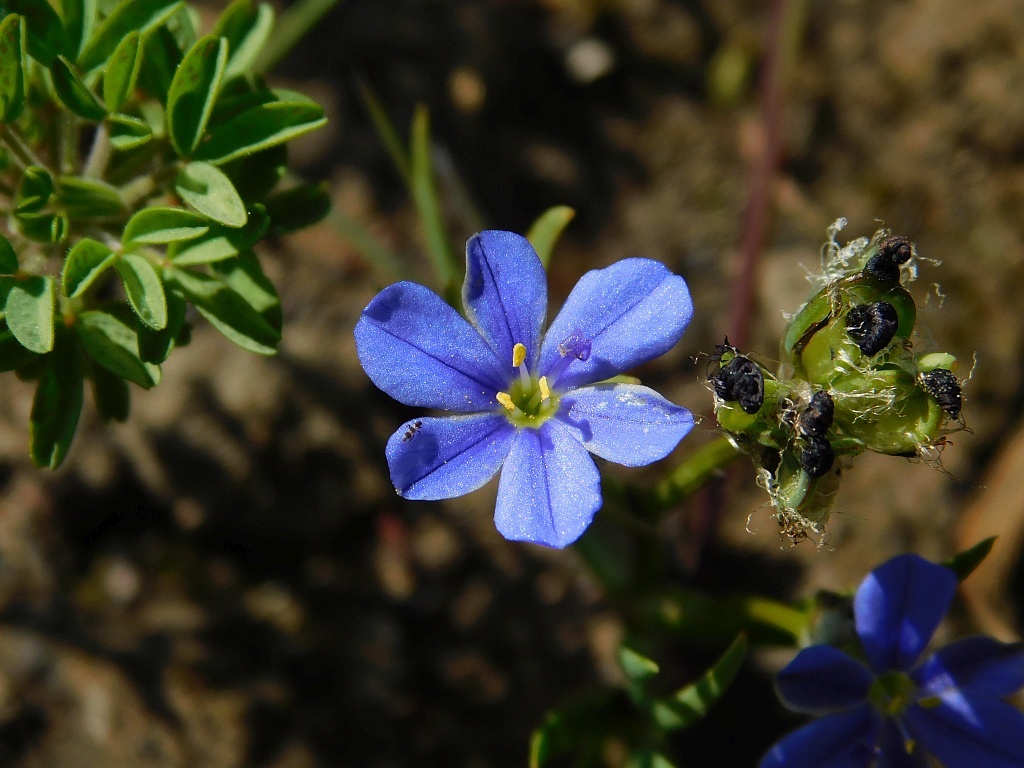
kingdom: Plantae
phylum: Tracheophyta
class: Liliopsida
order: Asparagales
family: Iridaceae
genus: Aristea
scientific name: Aristea africana
